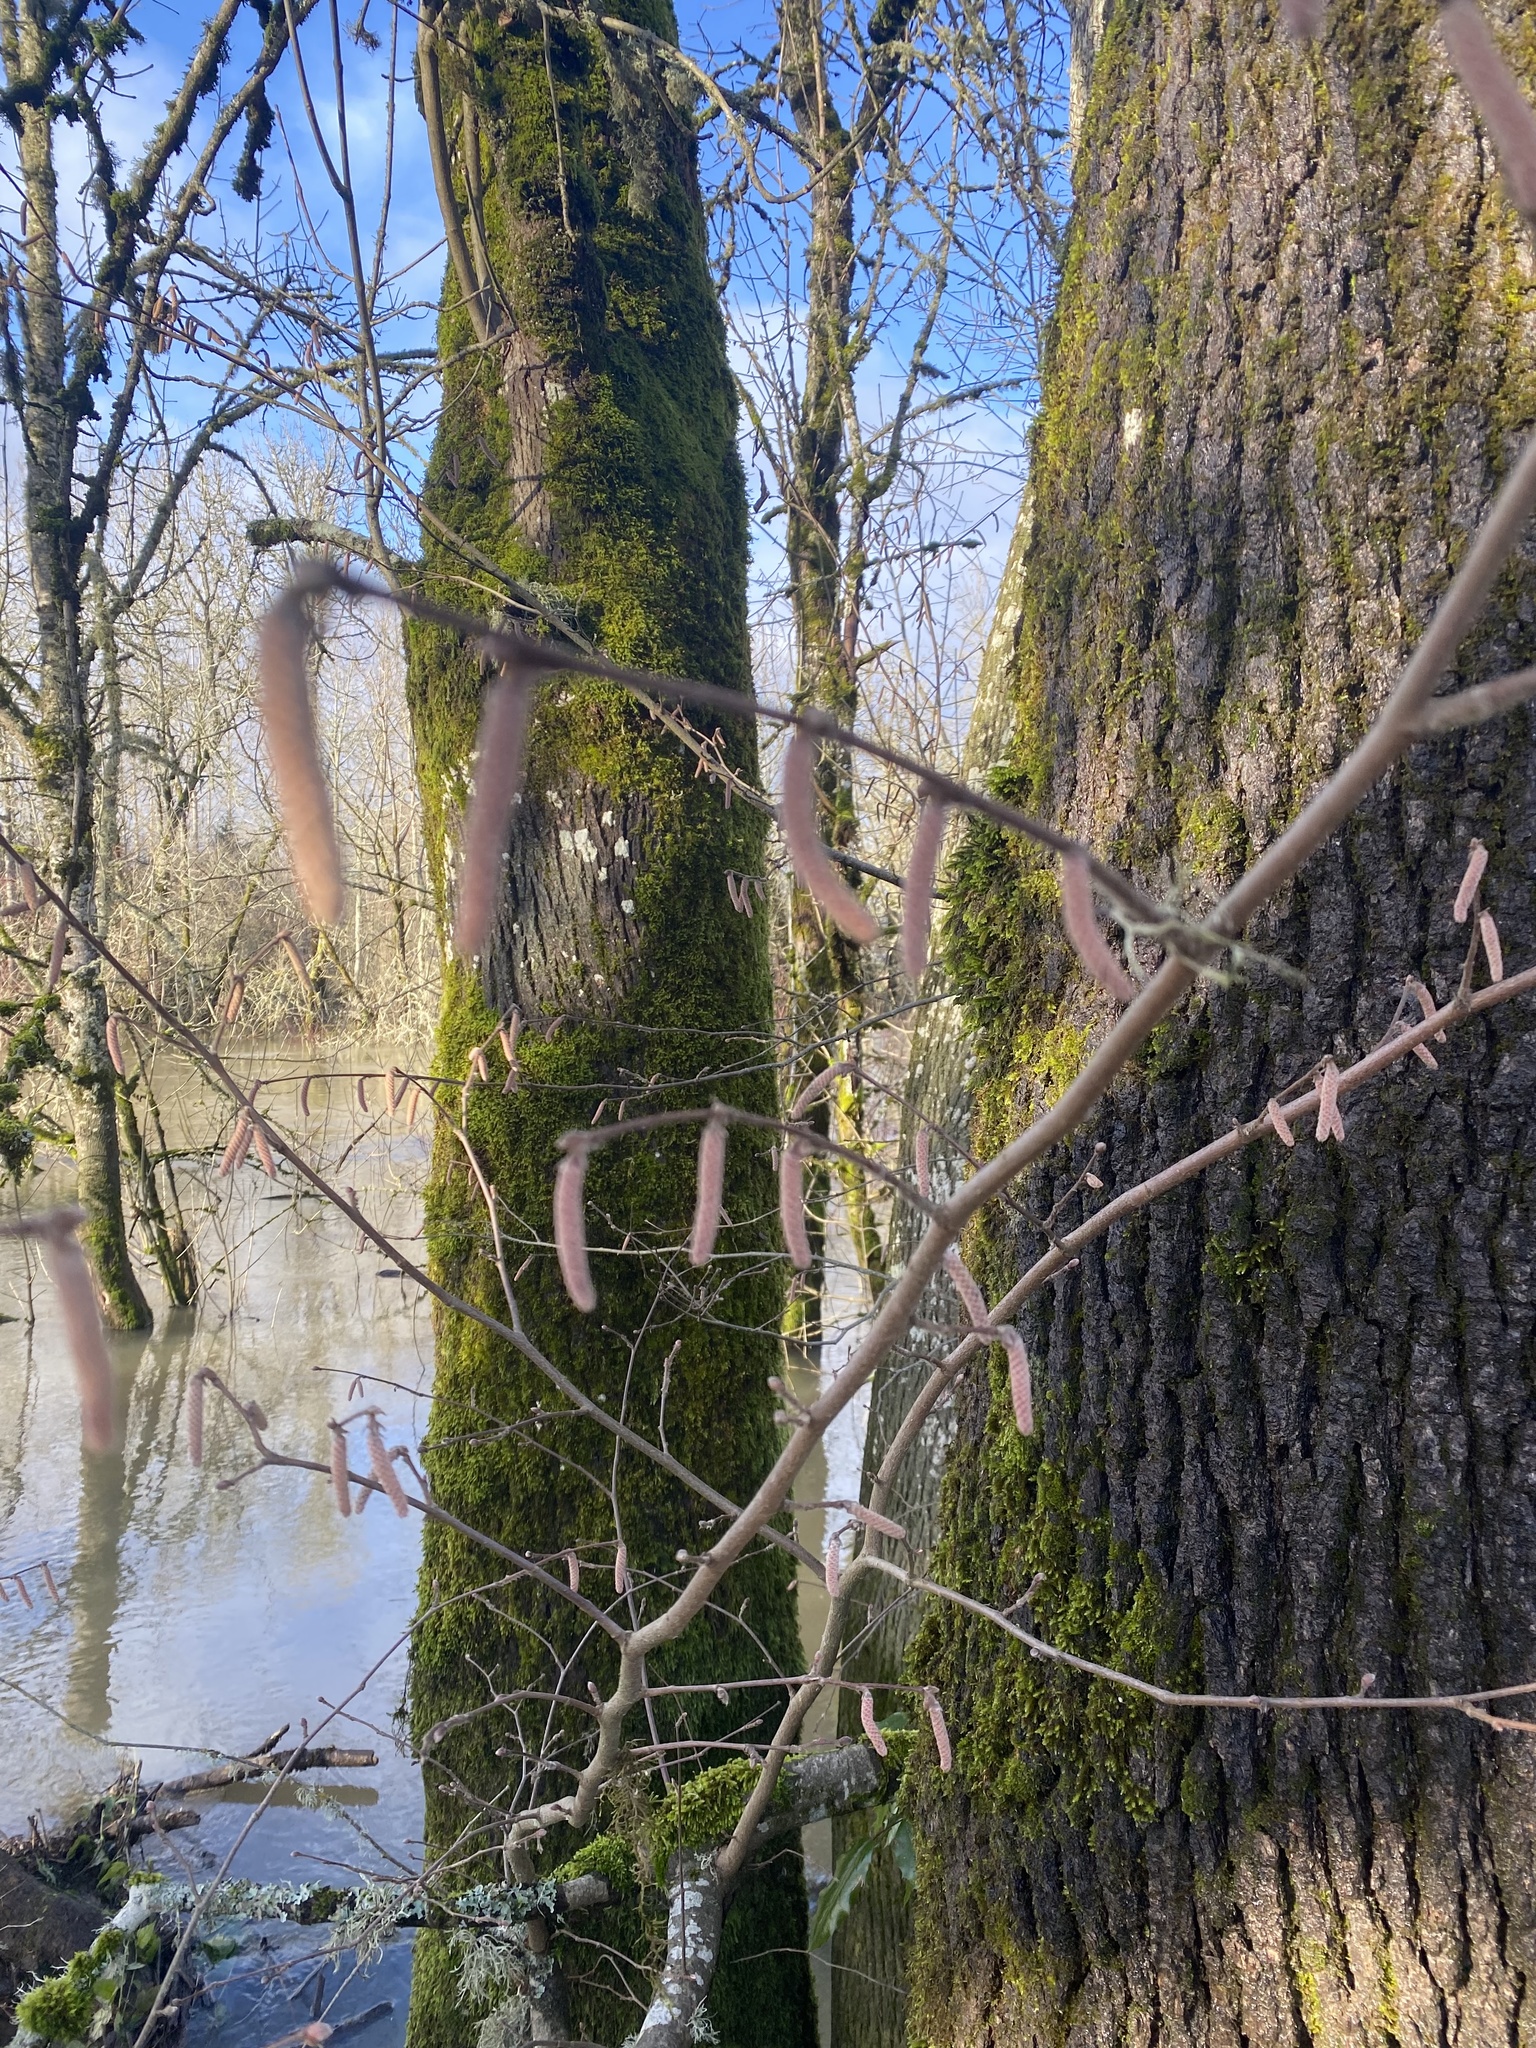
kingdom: Plantae
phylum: Tracheophyta
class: Magnoliopsida
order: Fagales
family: Betulaceae
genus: Corylus
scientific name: Corylus avellana
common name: European hazel
